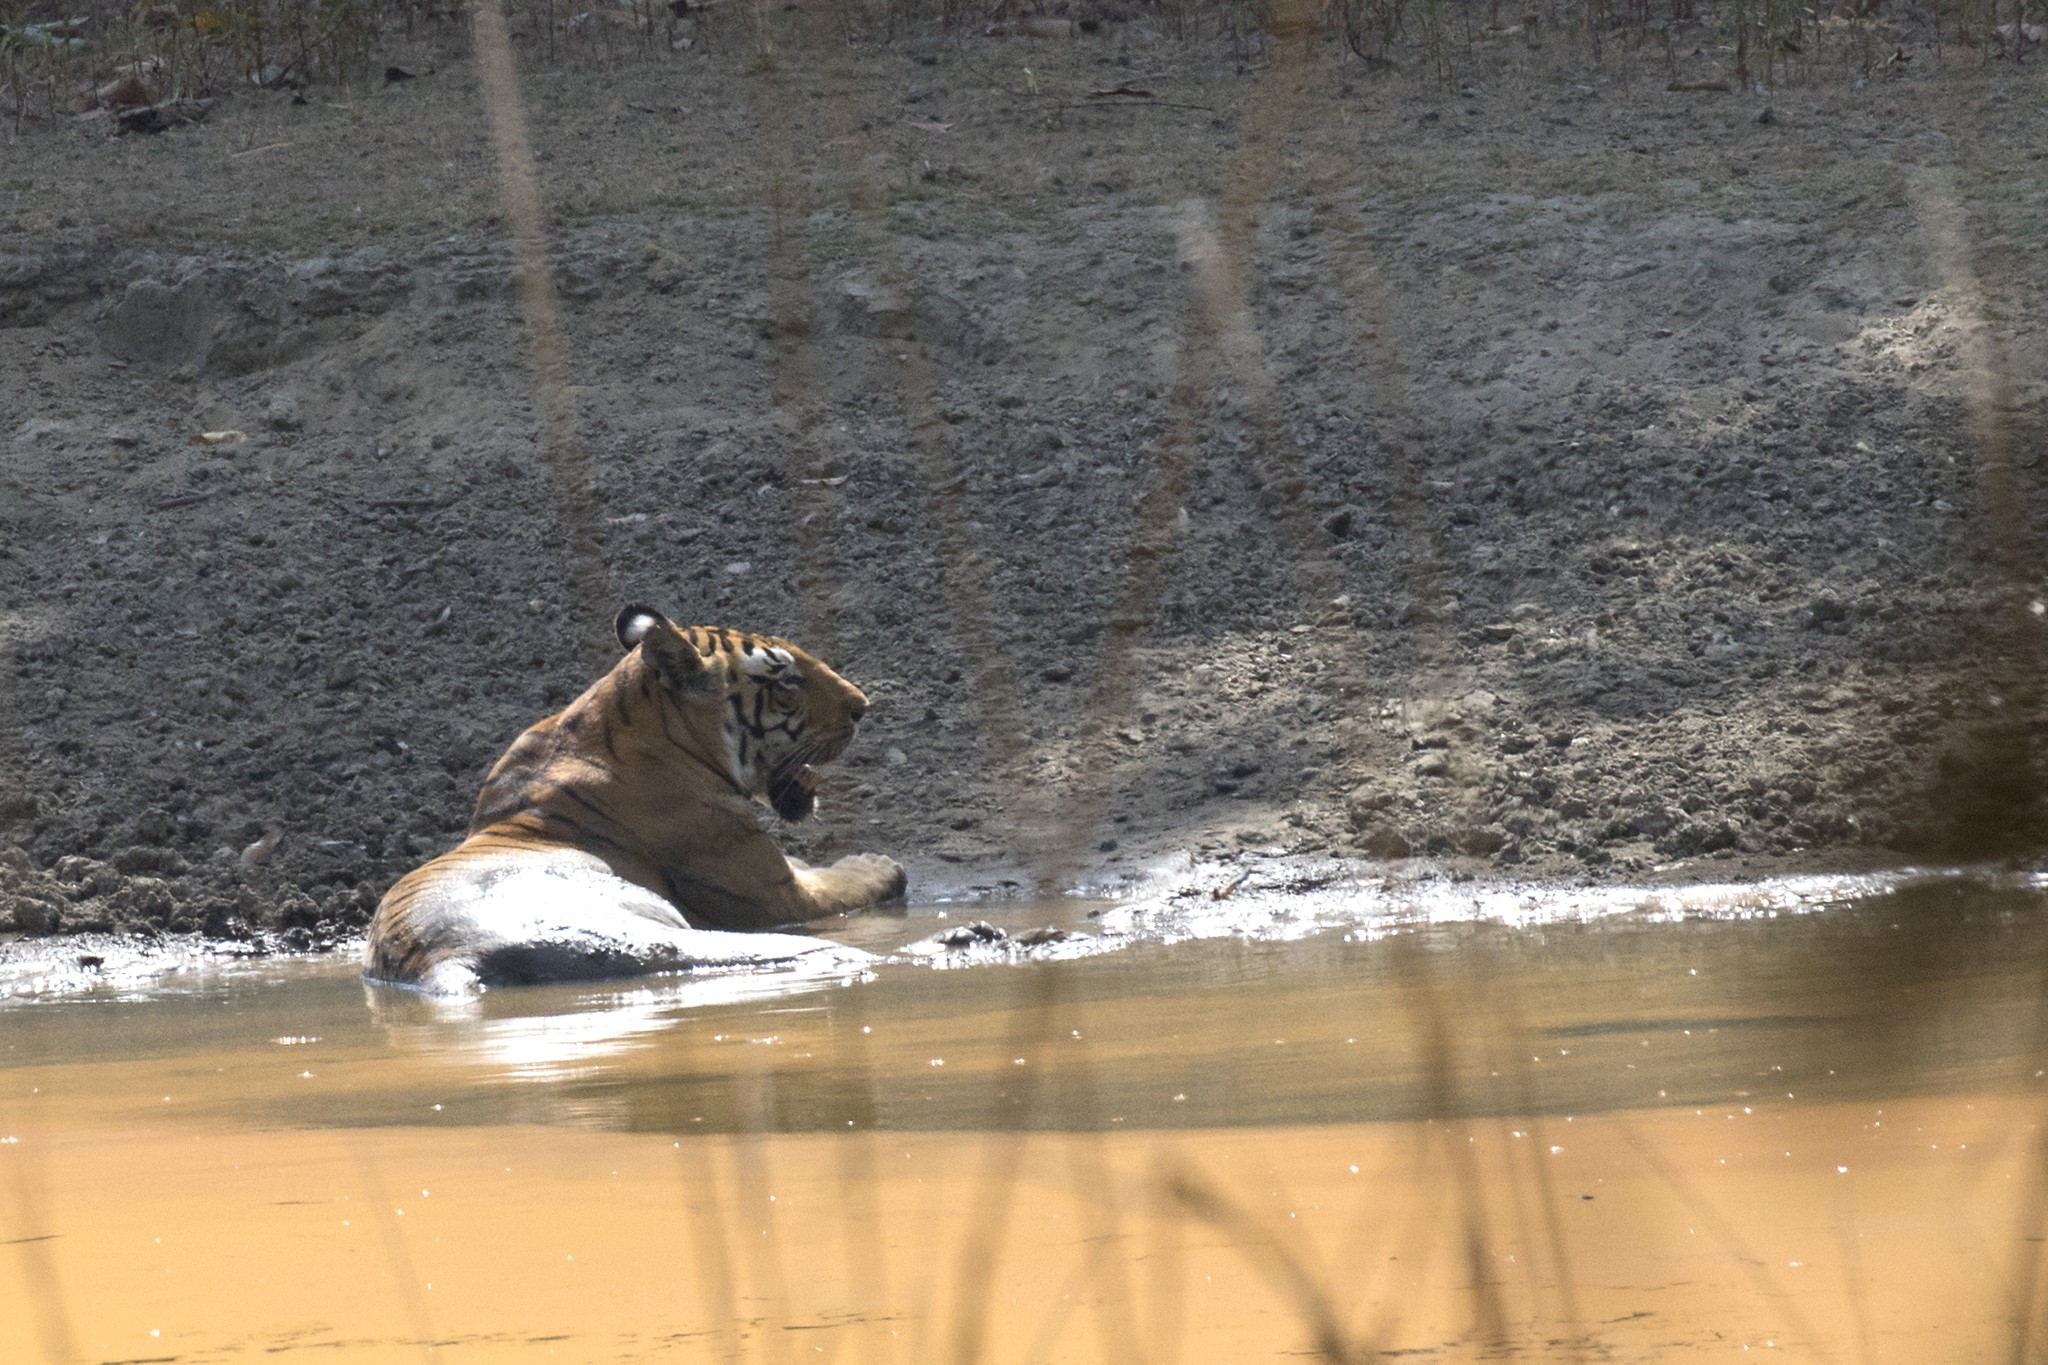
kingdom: Animalia
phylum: Chordata
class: Mammalia
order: Carnivora
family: Felidae
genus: Panthera
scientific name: Panthera tigris
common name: Tiger
